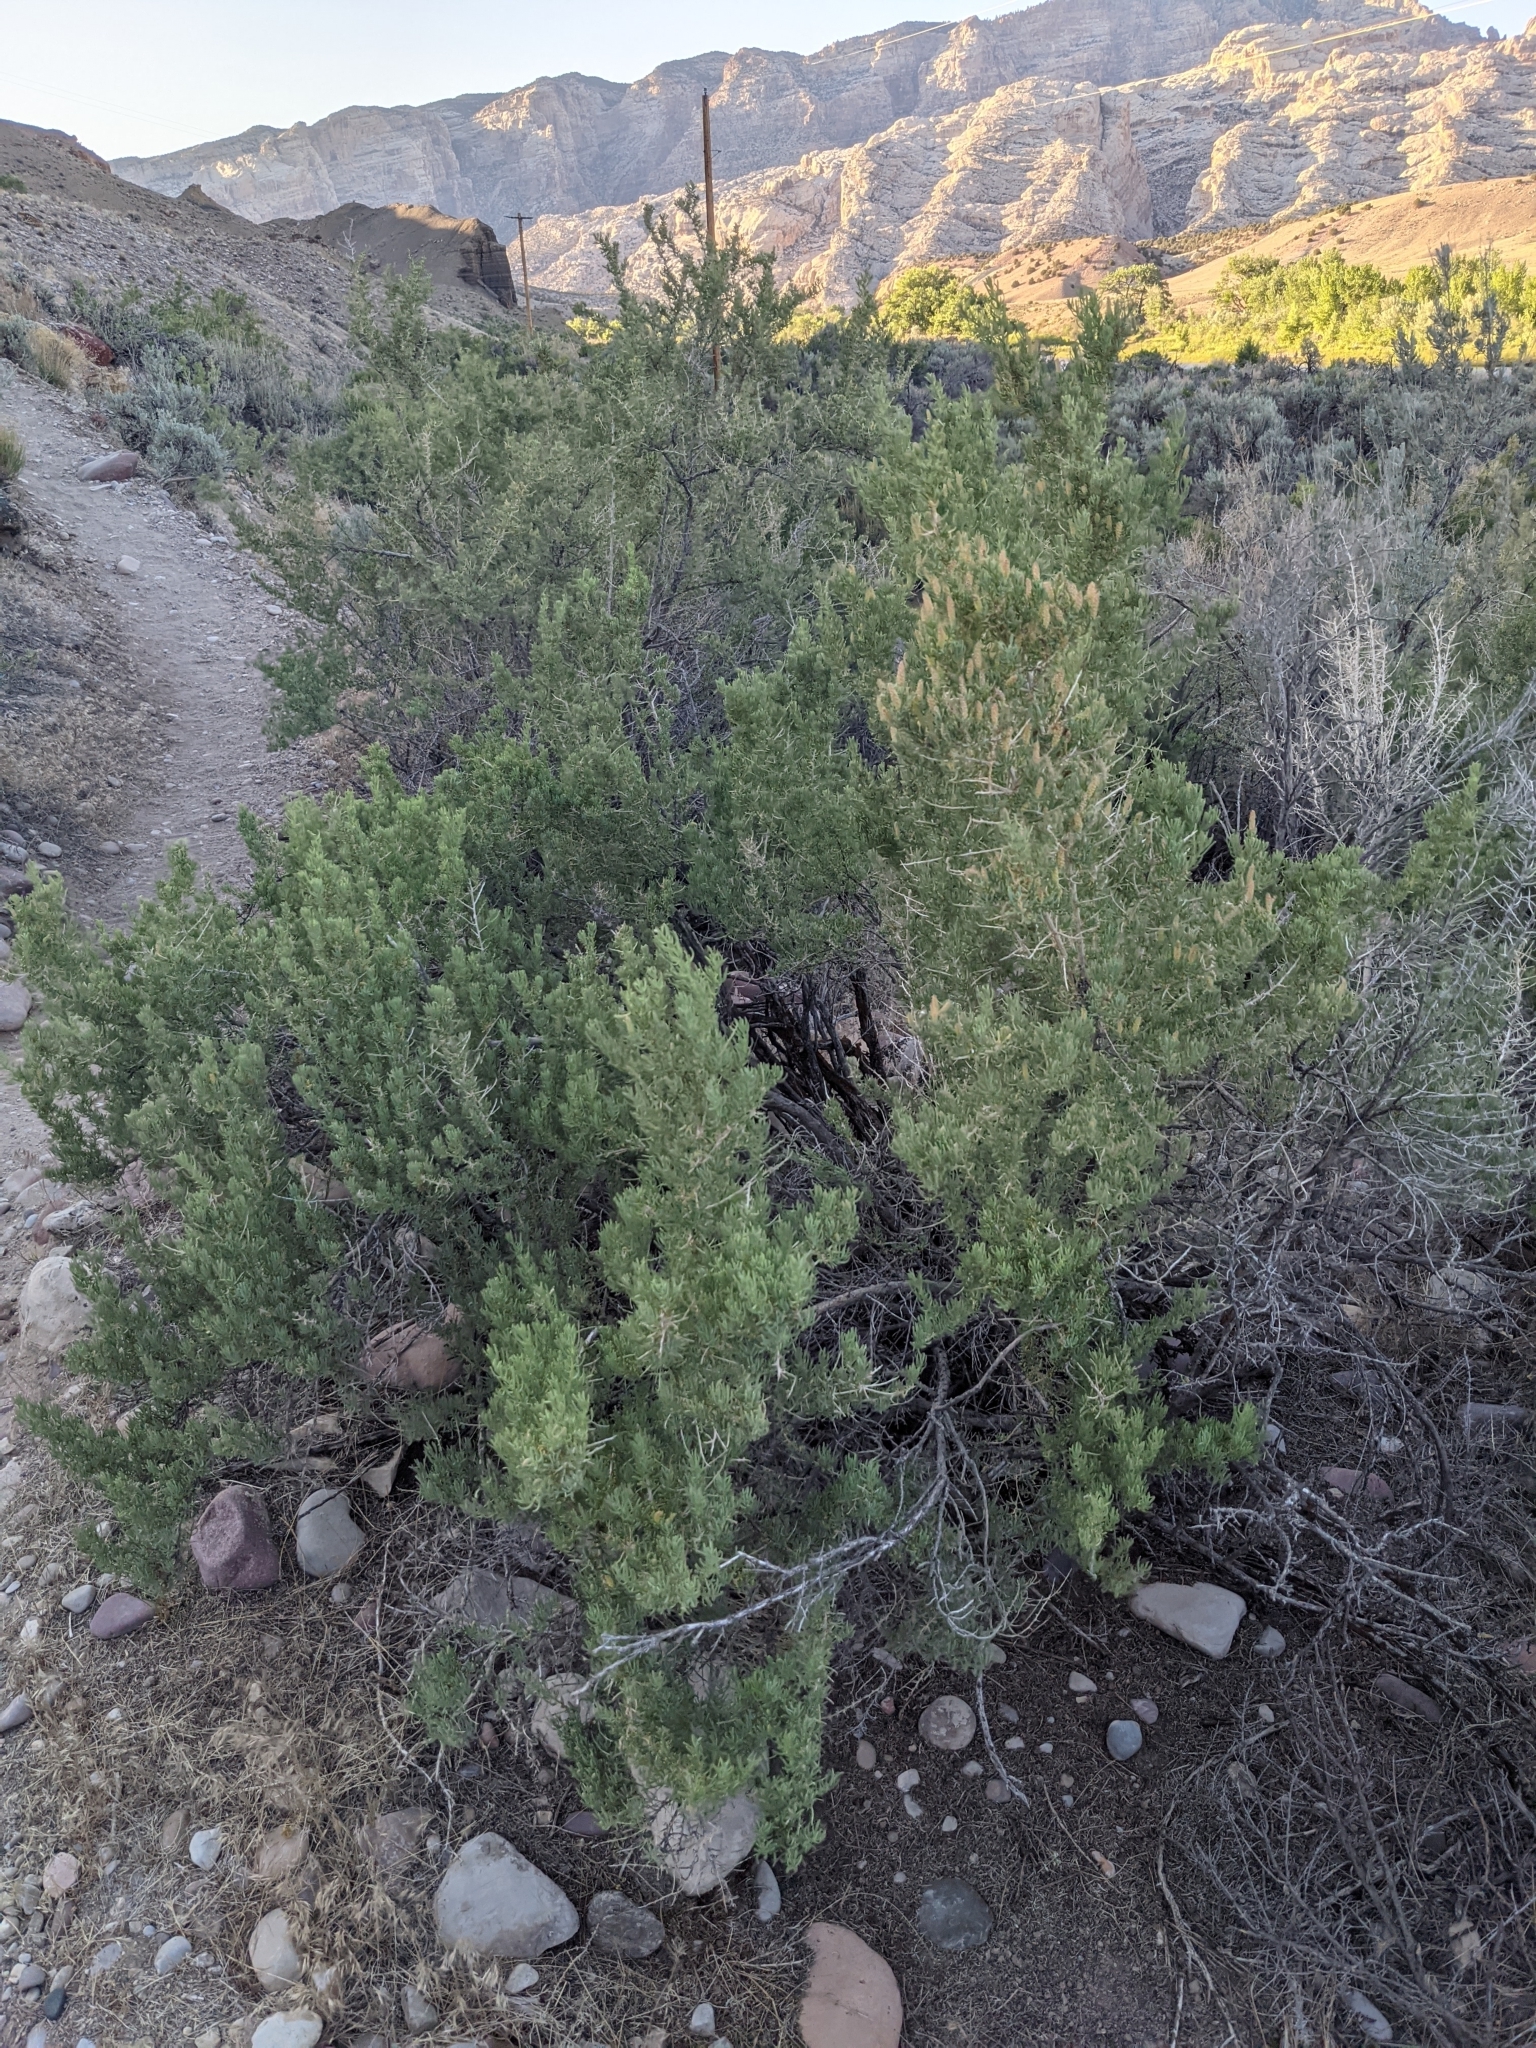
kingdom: Plantae
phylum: Tracheophyta
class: Magnoliopsida
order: Caryophyllales
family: Sarcobataceae
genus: Sarcobatus
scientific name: Sarcobatus vermiculatus
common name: Greasewood
